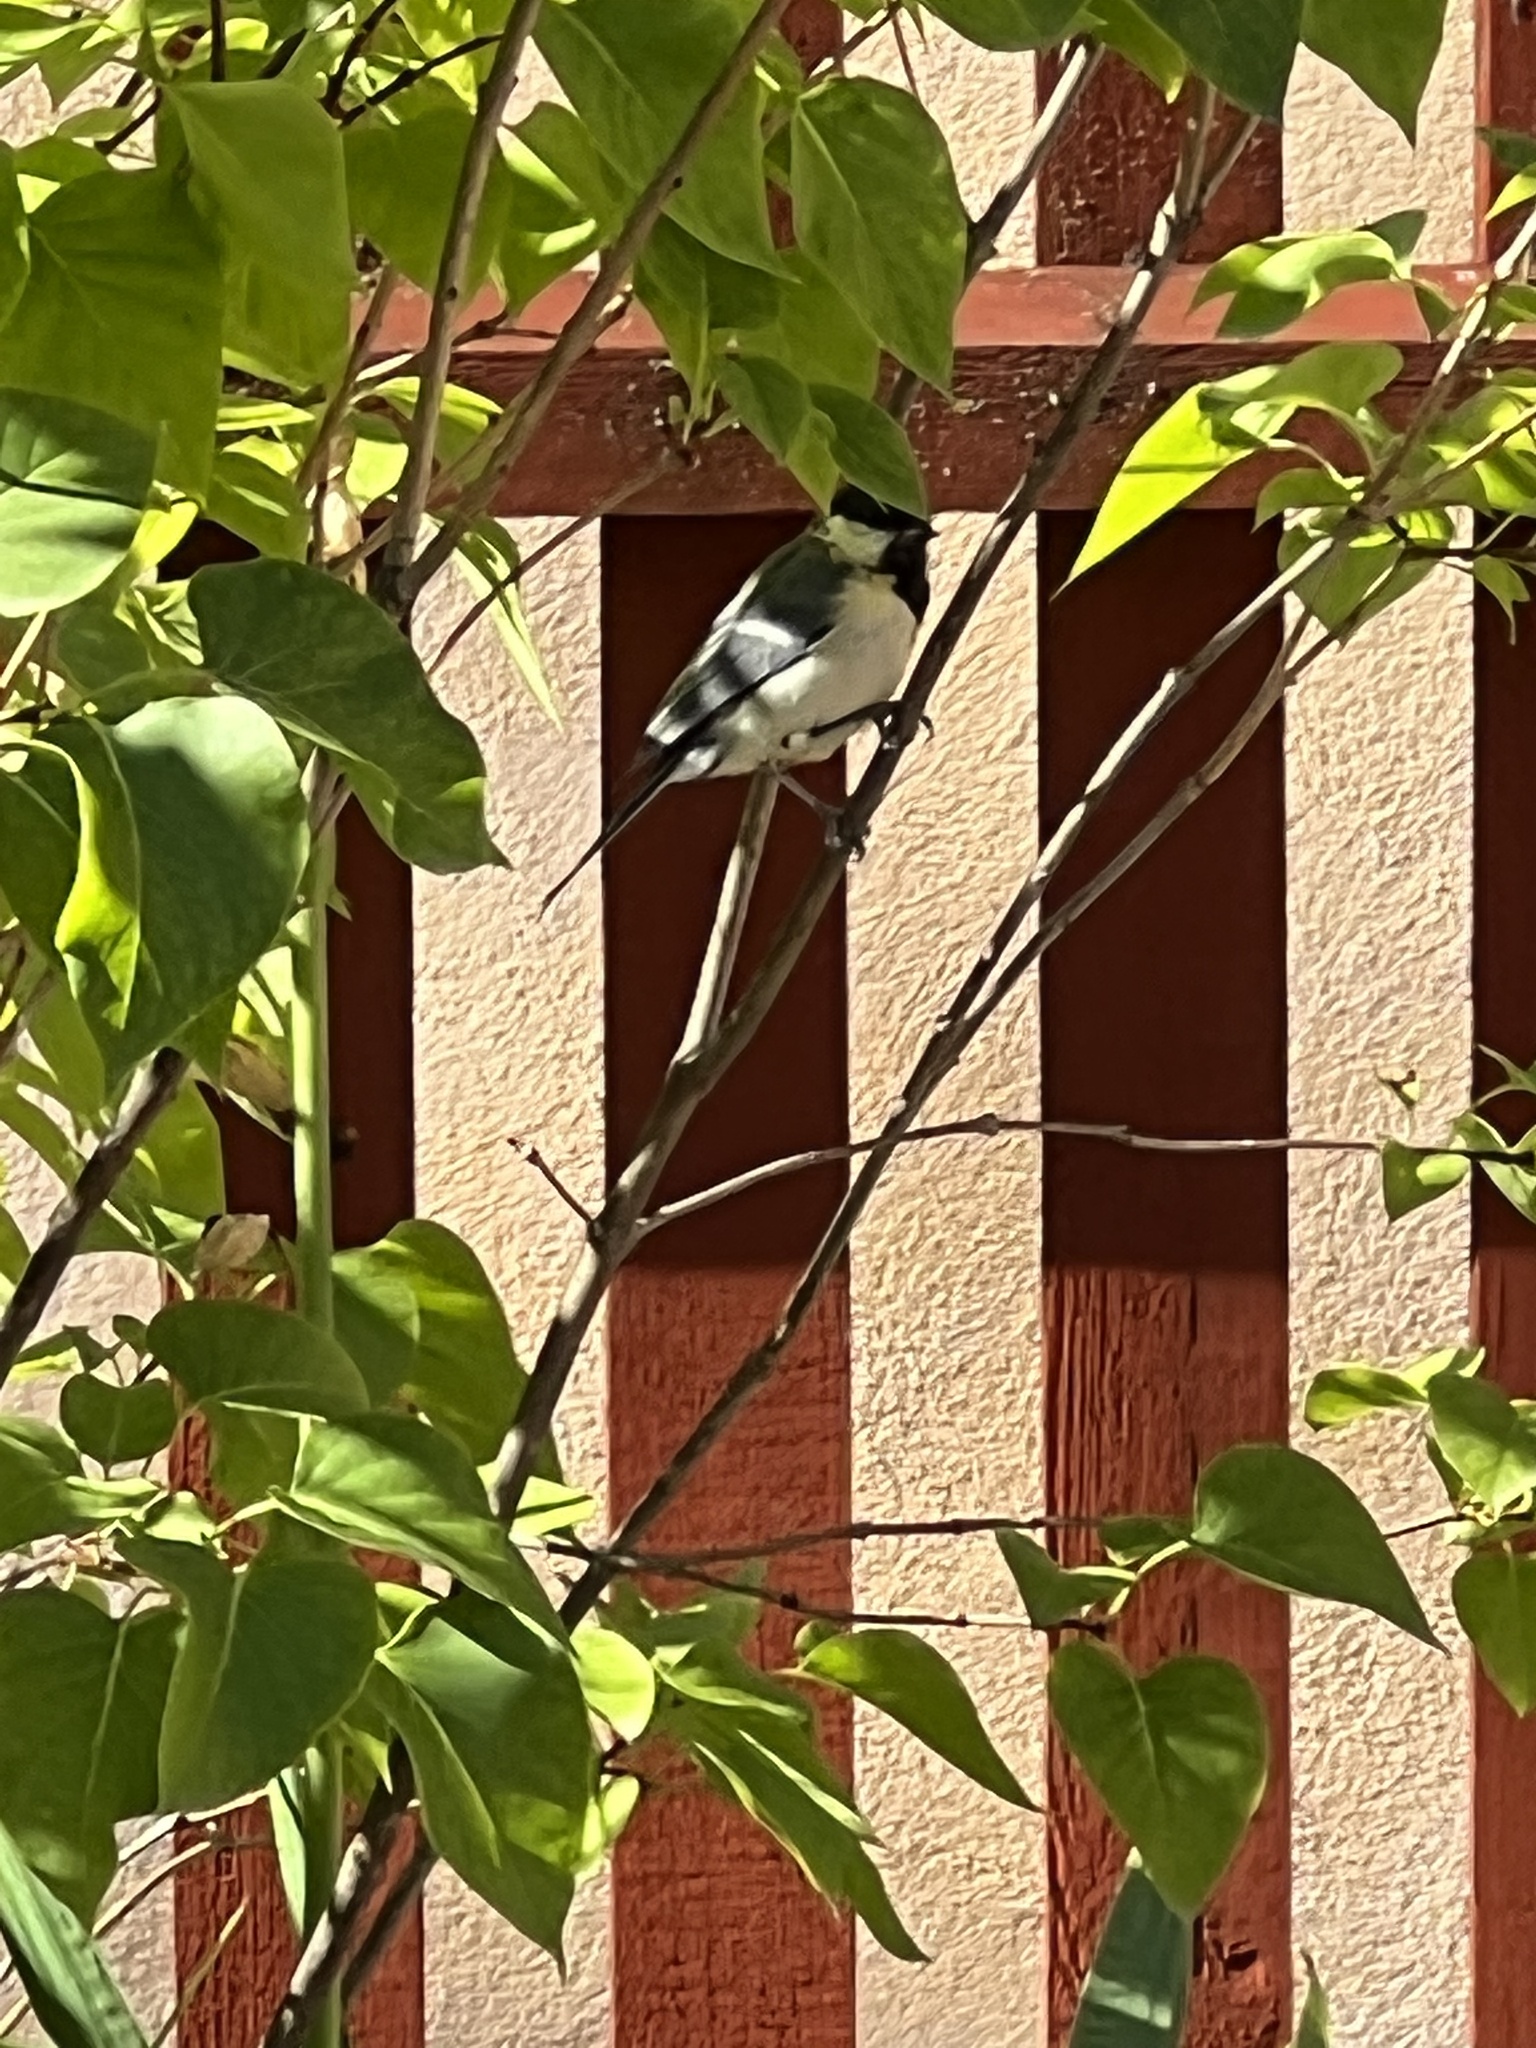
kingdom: Animalia
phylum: Chordata
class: Aves
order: Passeriformes
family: Paridae
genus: Parus
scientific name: Parus major
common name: Great tit
